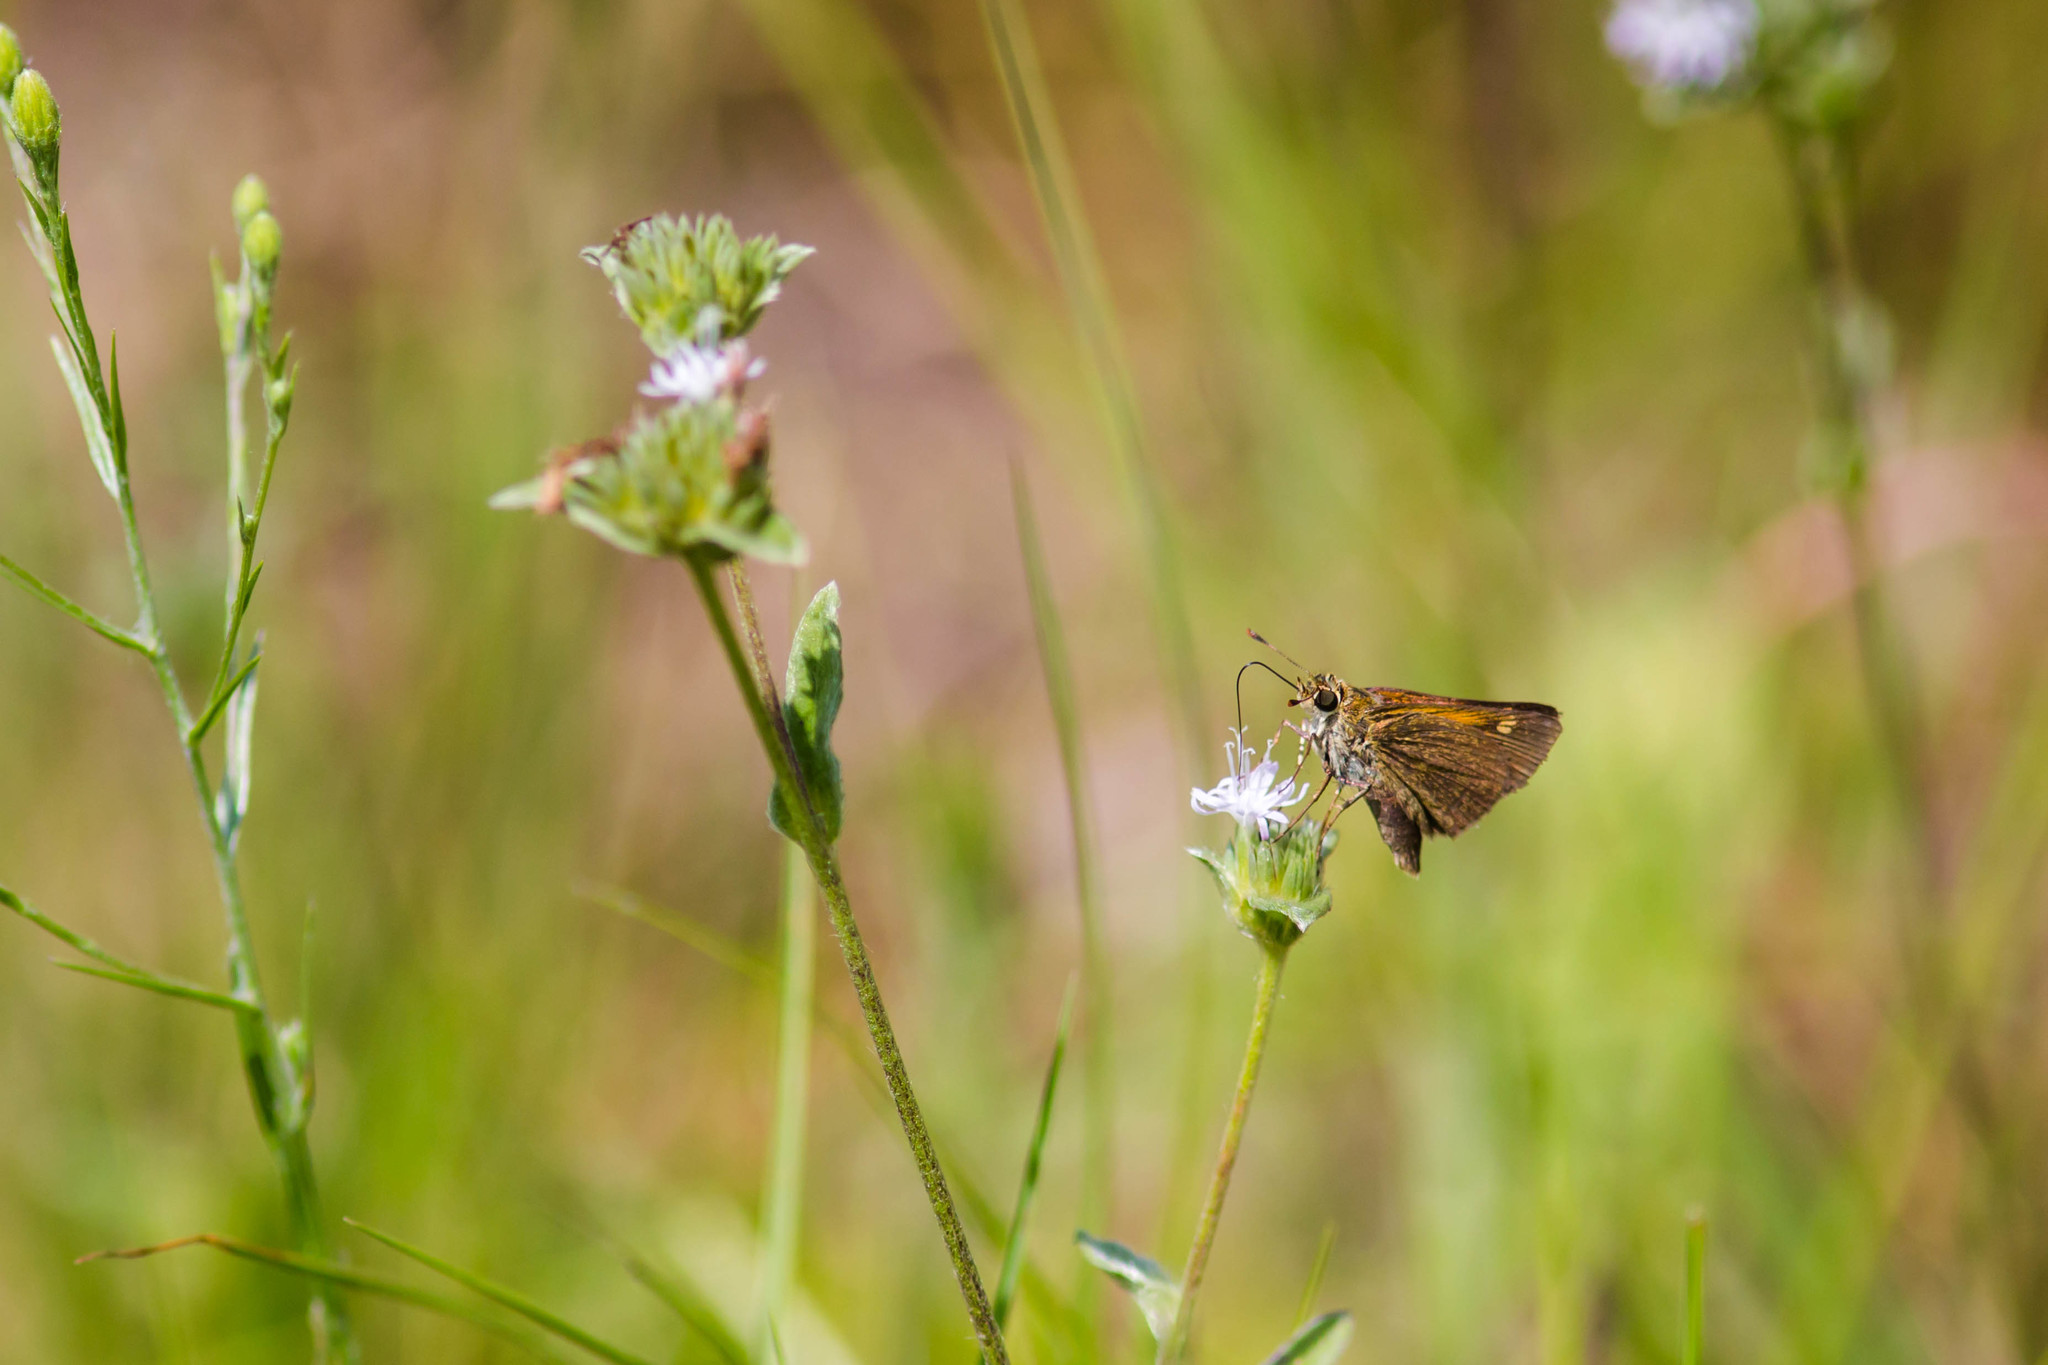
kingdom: Animalia
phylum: Arthropoda
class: Insecta
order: Lepidoptera
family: Hesperiidae
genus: Polites
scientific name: Polites themistocles
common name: Tawny-edged skipper
